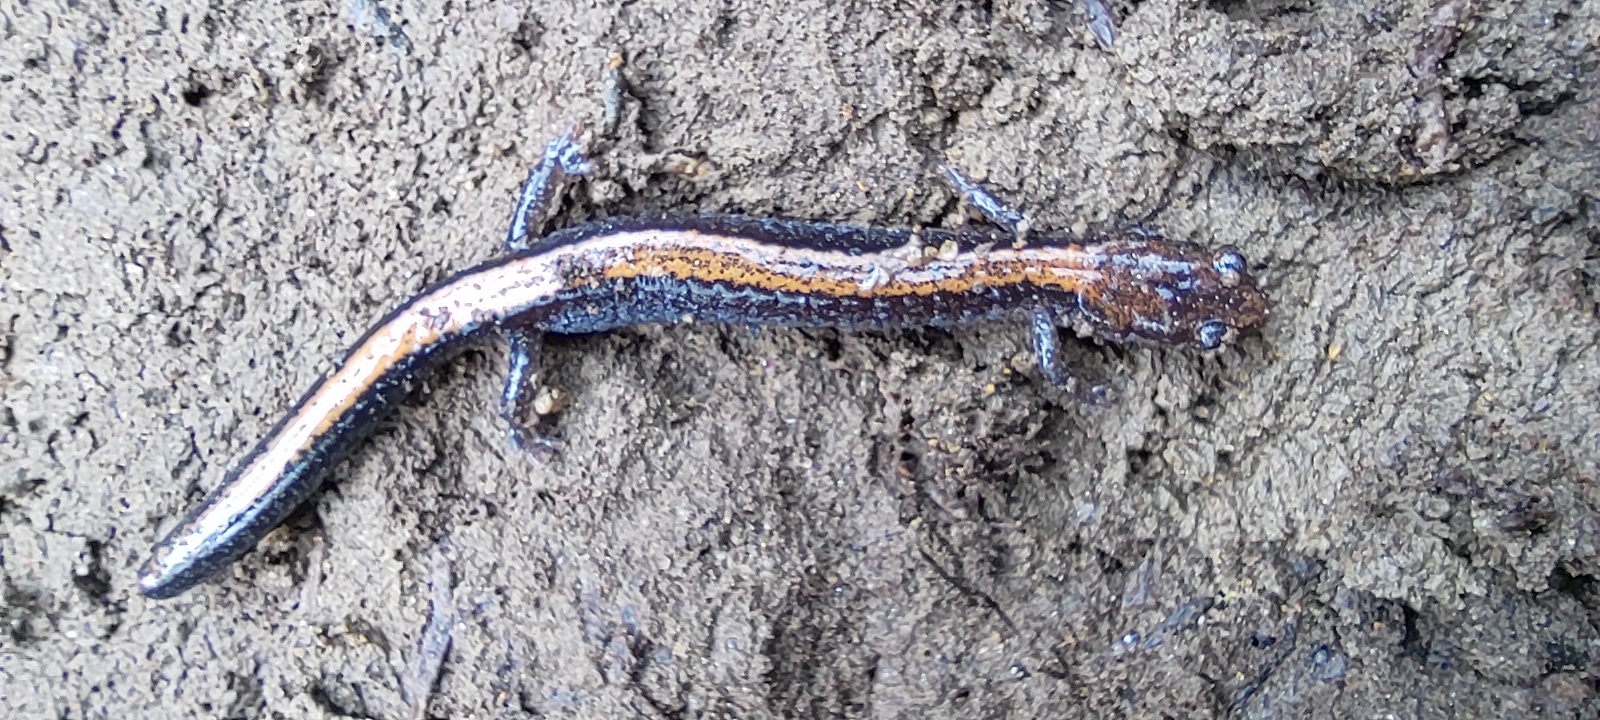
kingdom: Animalia
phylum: Chordata
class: Amphibia
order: Caudata
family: Plethodontidae
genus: Plethodon
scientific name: Plethodon cinereus
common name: Redback salamander
